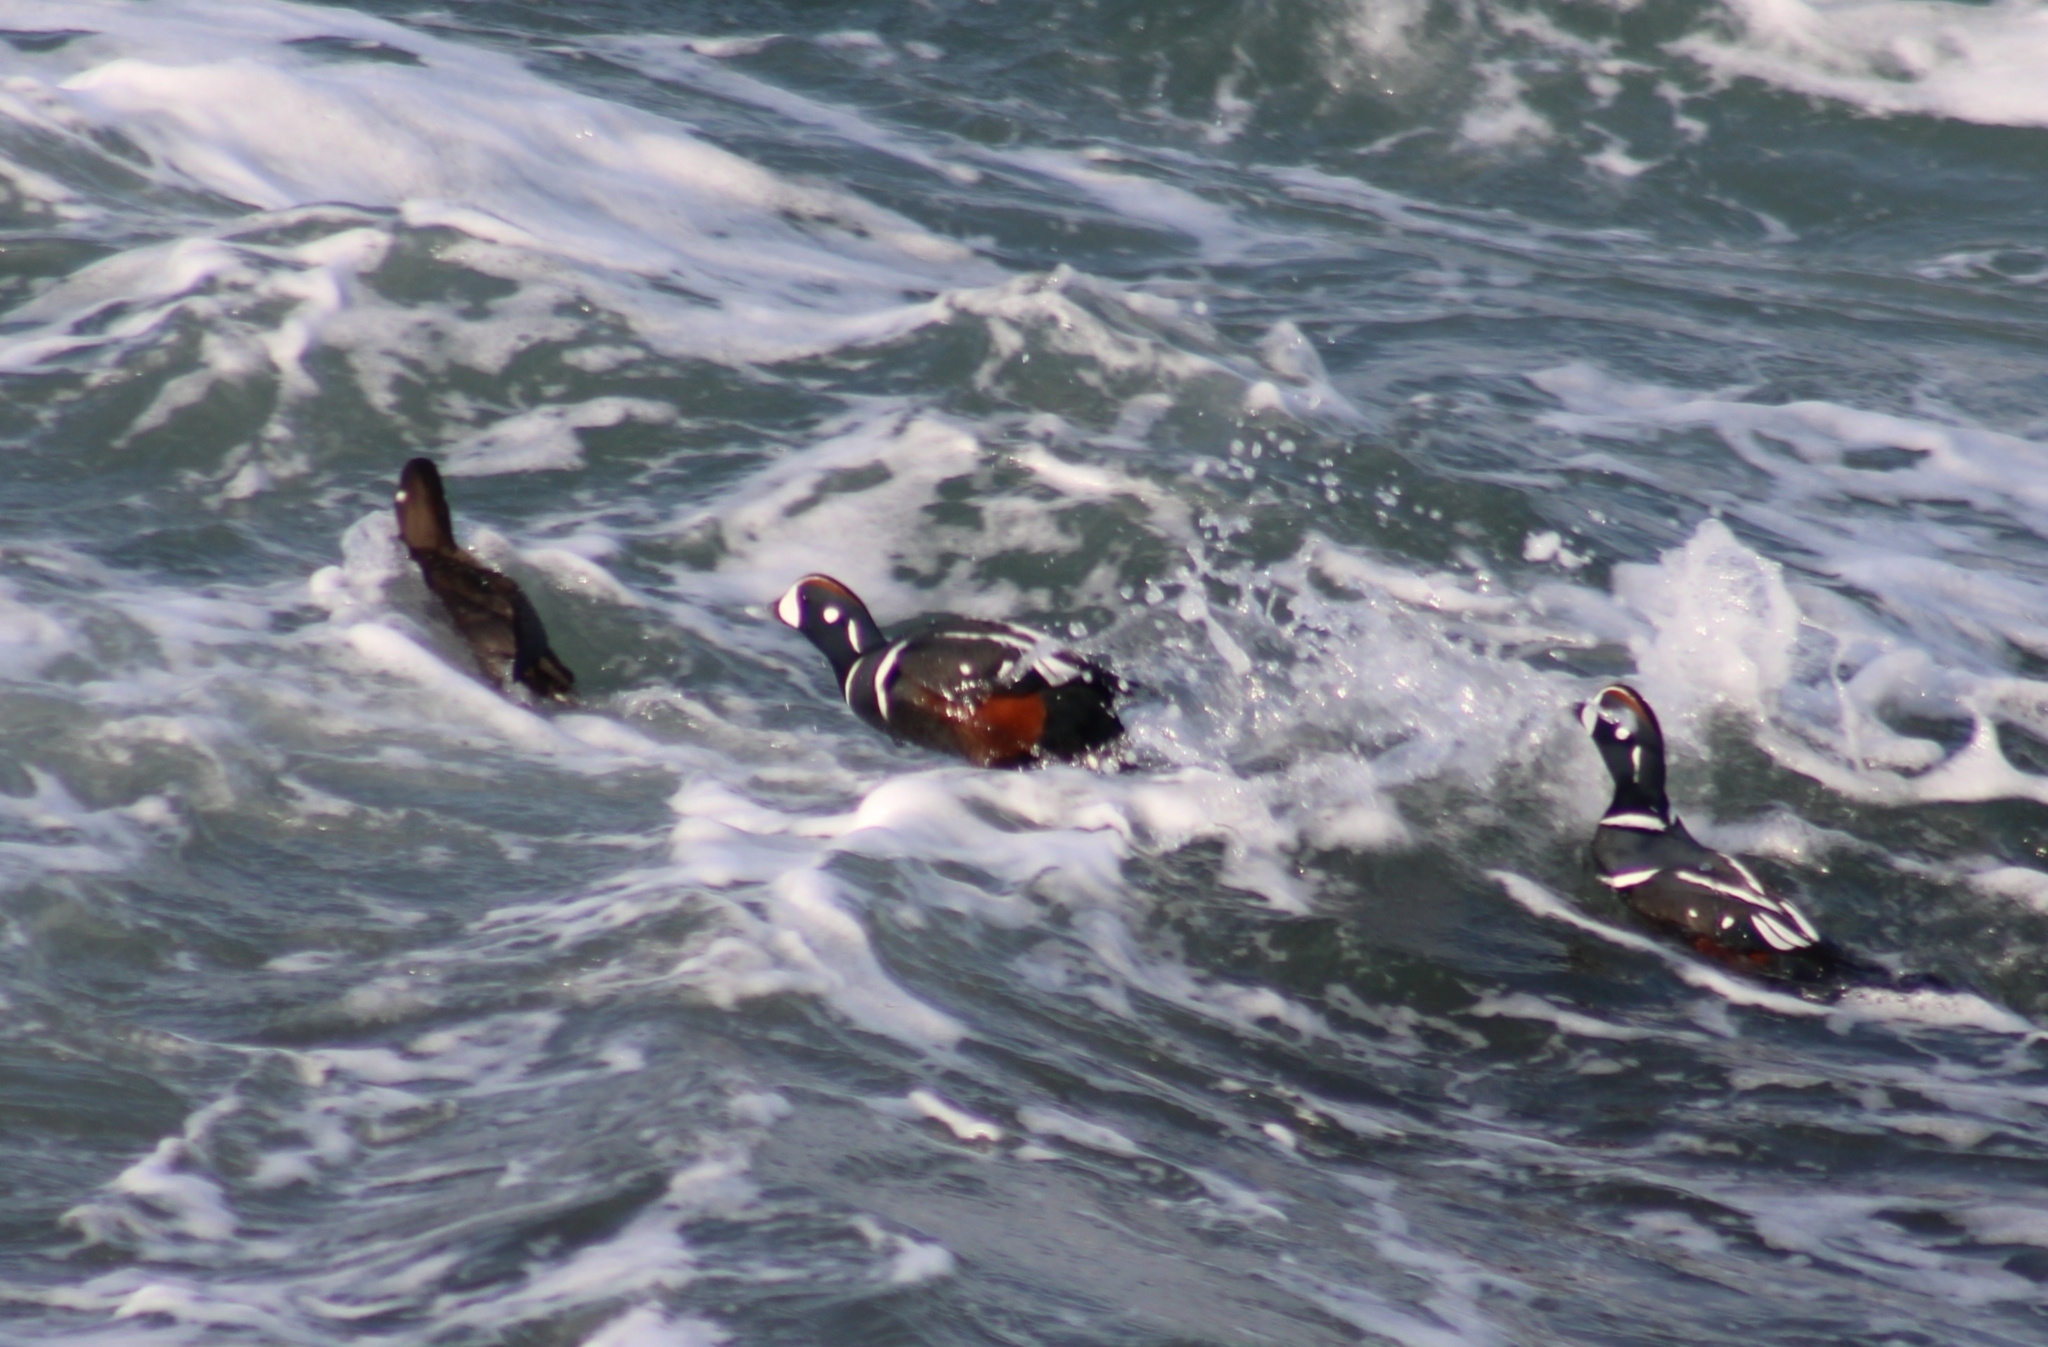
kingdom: Animalia
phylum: Chordata
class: Aves
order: Anseriformes
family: Anatidae
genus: Histrionicus
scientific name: Histrionicus histrionicus
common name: Harlequin duck
